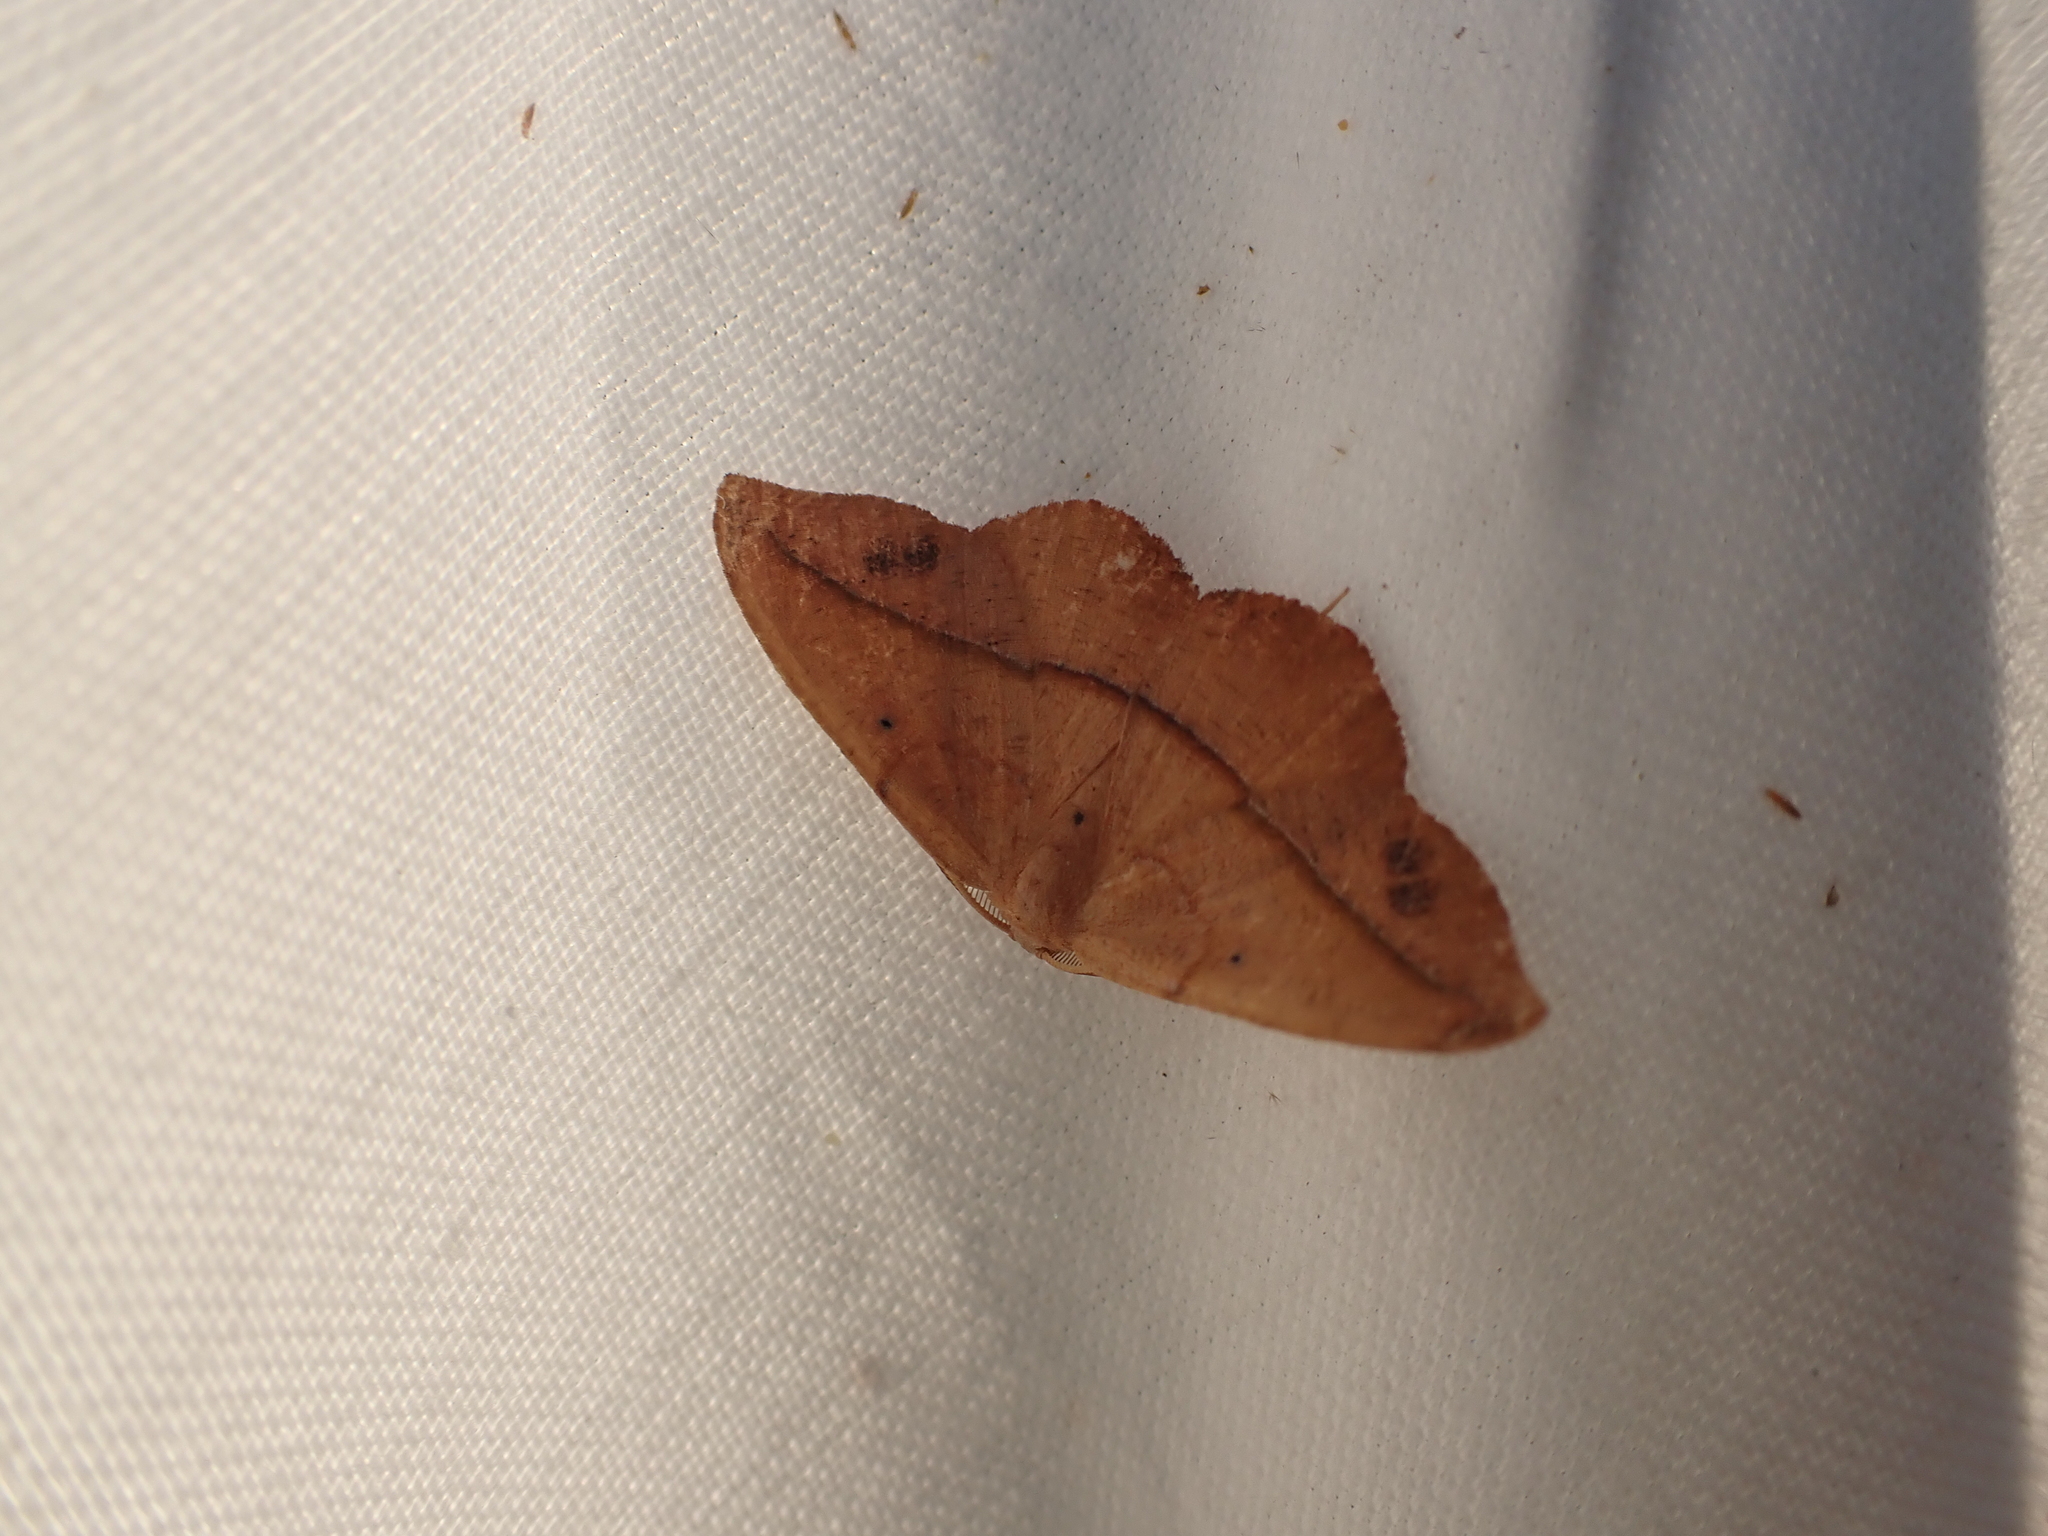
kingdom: Animalia
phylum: Arthropoda
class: Insecta
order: Lepidoptera
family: Geometridae
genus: Patalene
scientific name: Patalene olyzonaria
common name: Juniper geometer moth
